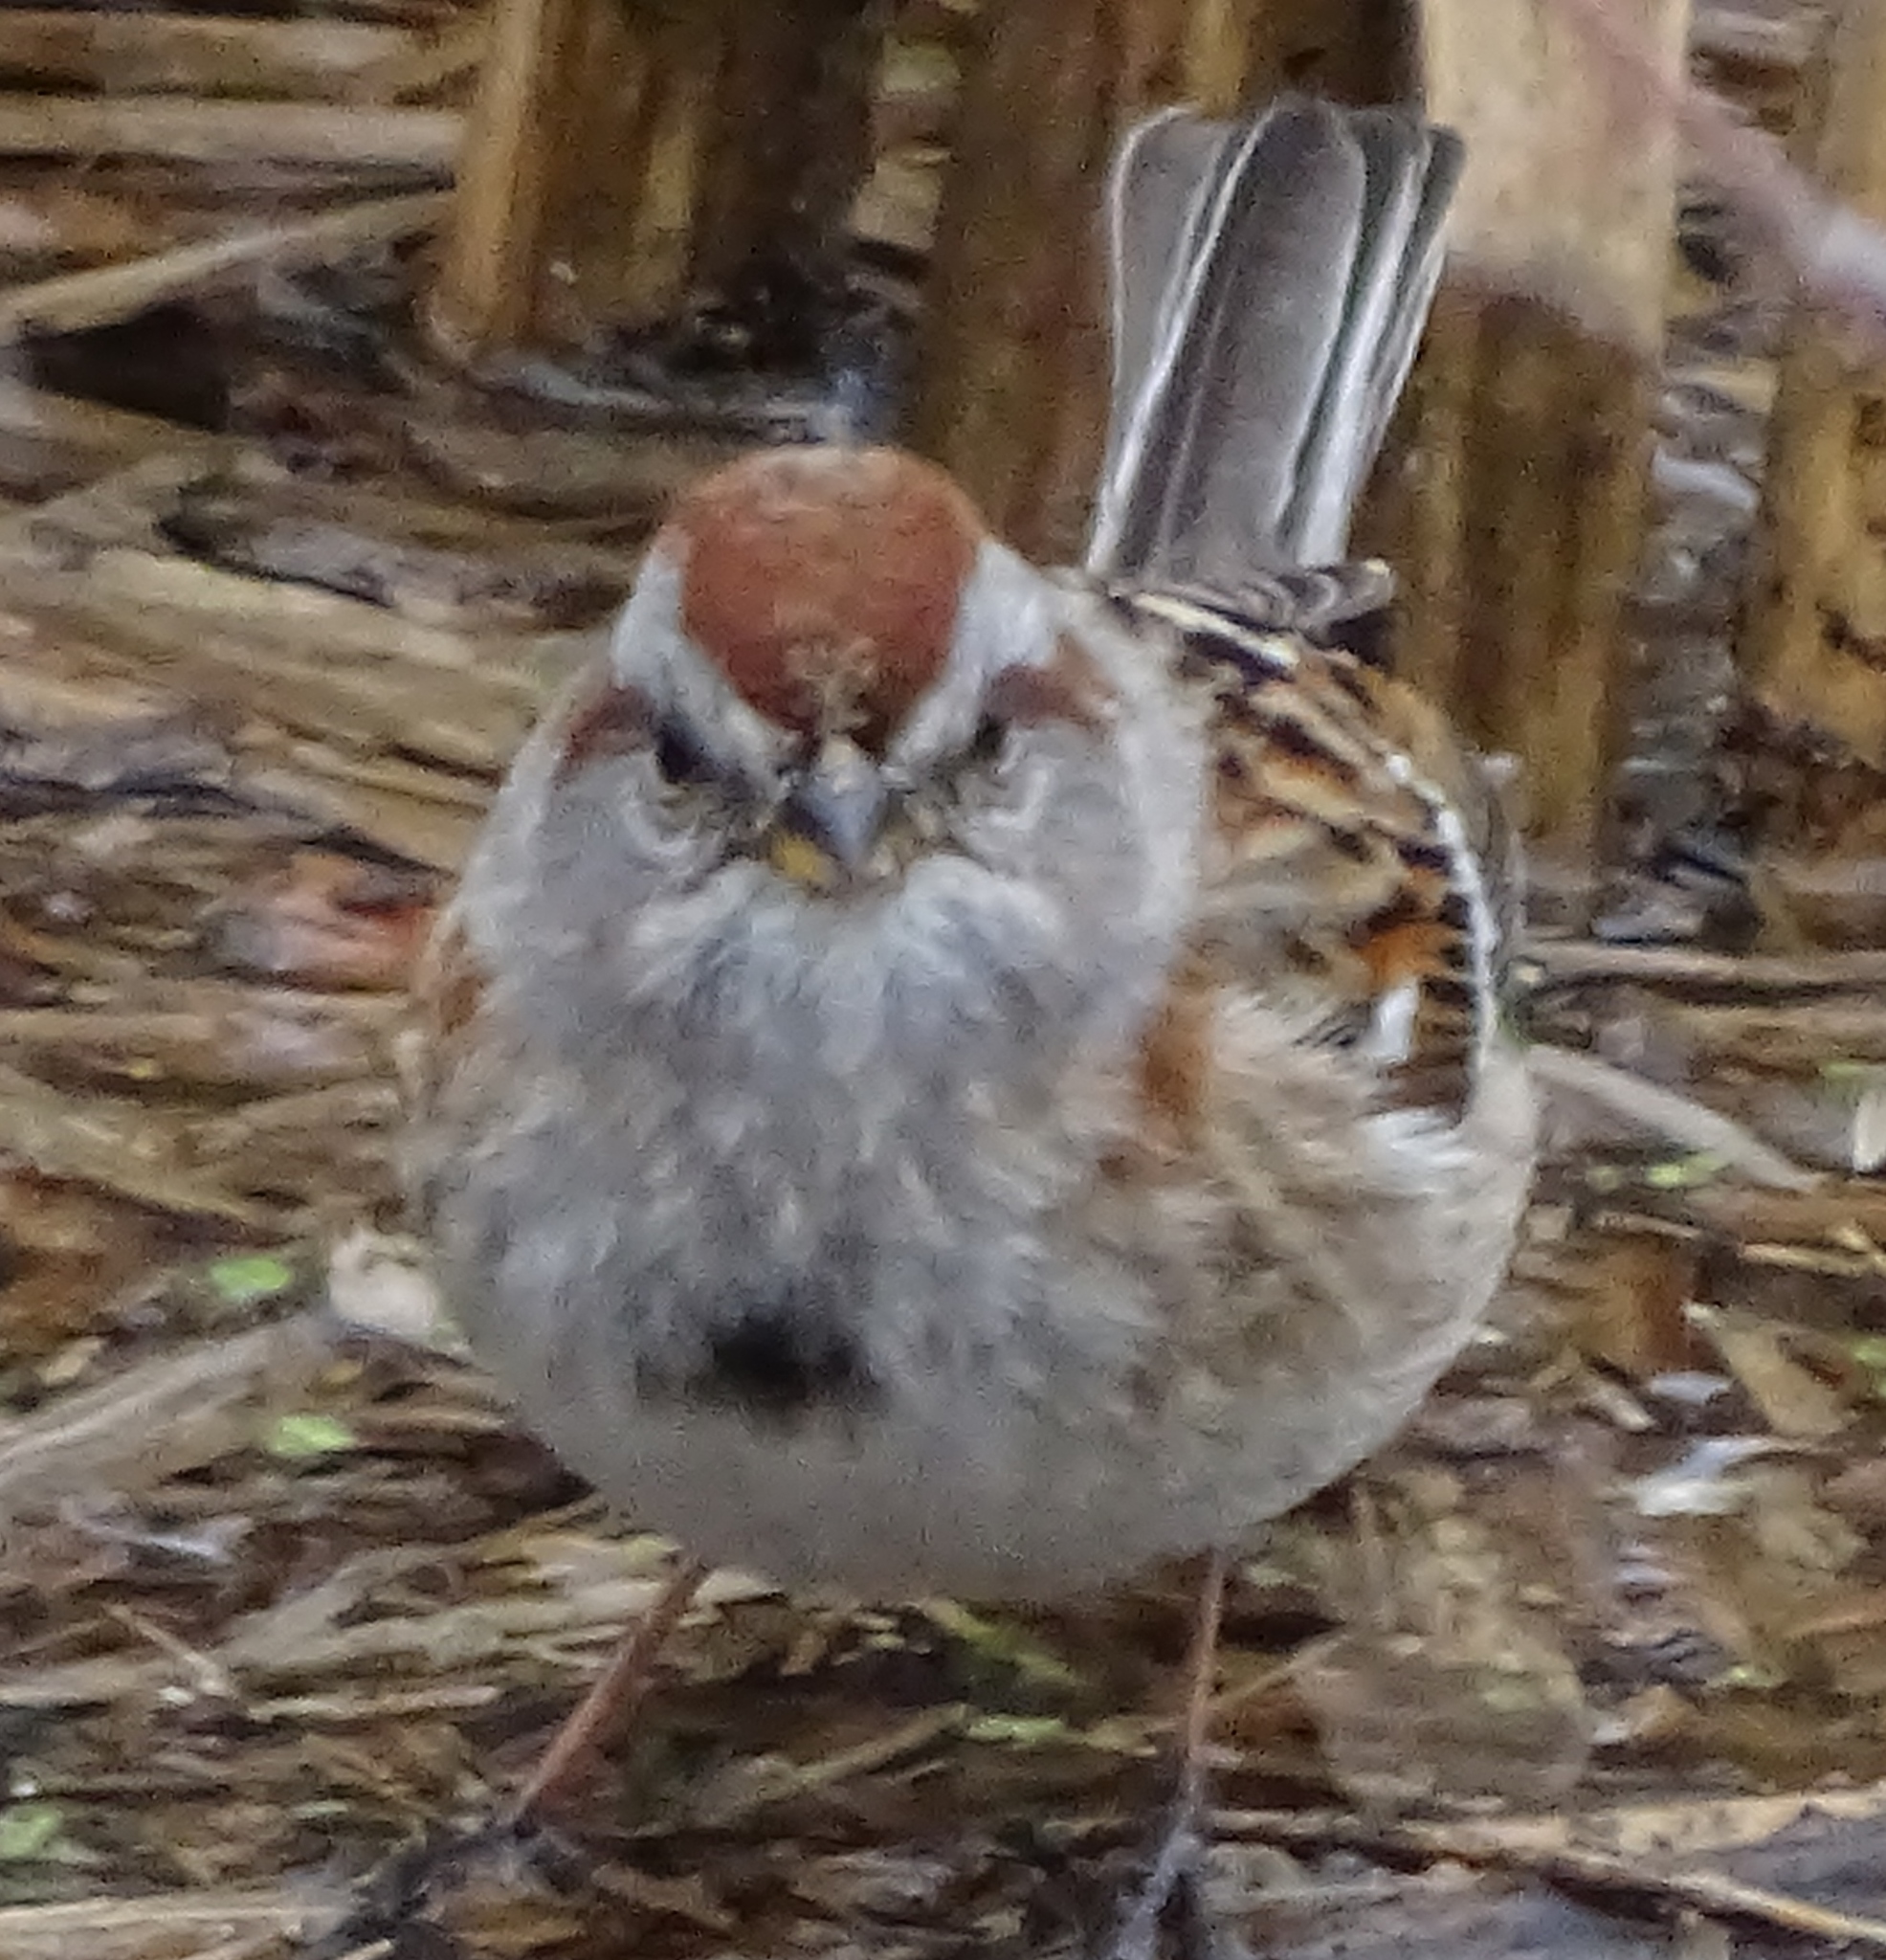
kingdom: Animalia
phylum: Chordata
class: Aves
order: Passeriformes
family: Passerellidae
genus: Spizelloides
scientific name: Spizelloides arborea
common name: American tree sparrow
